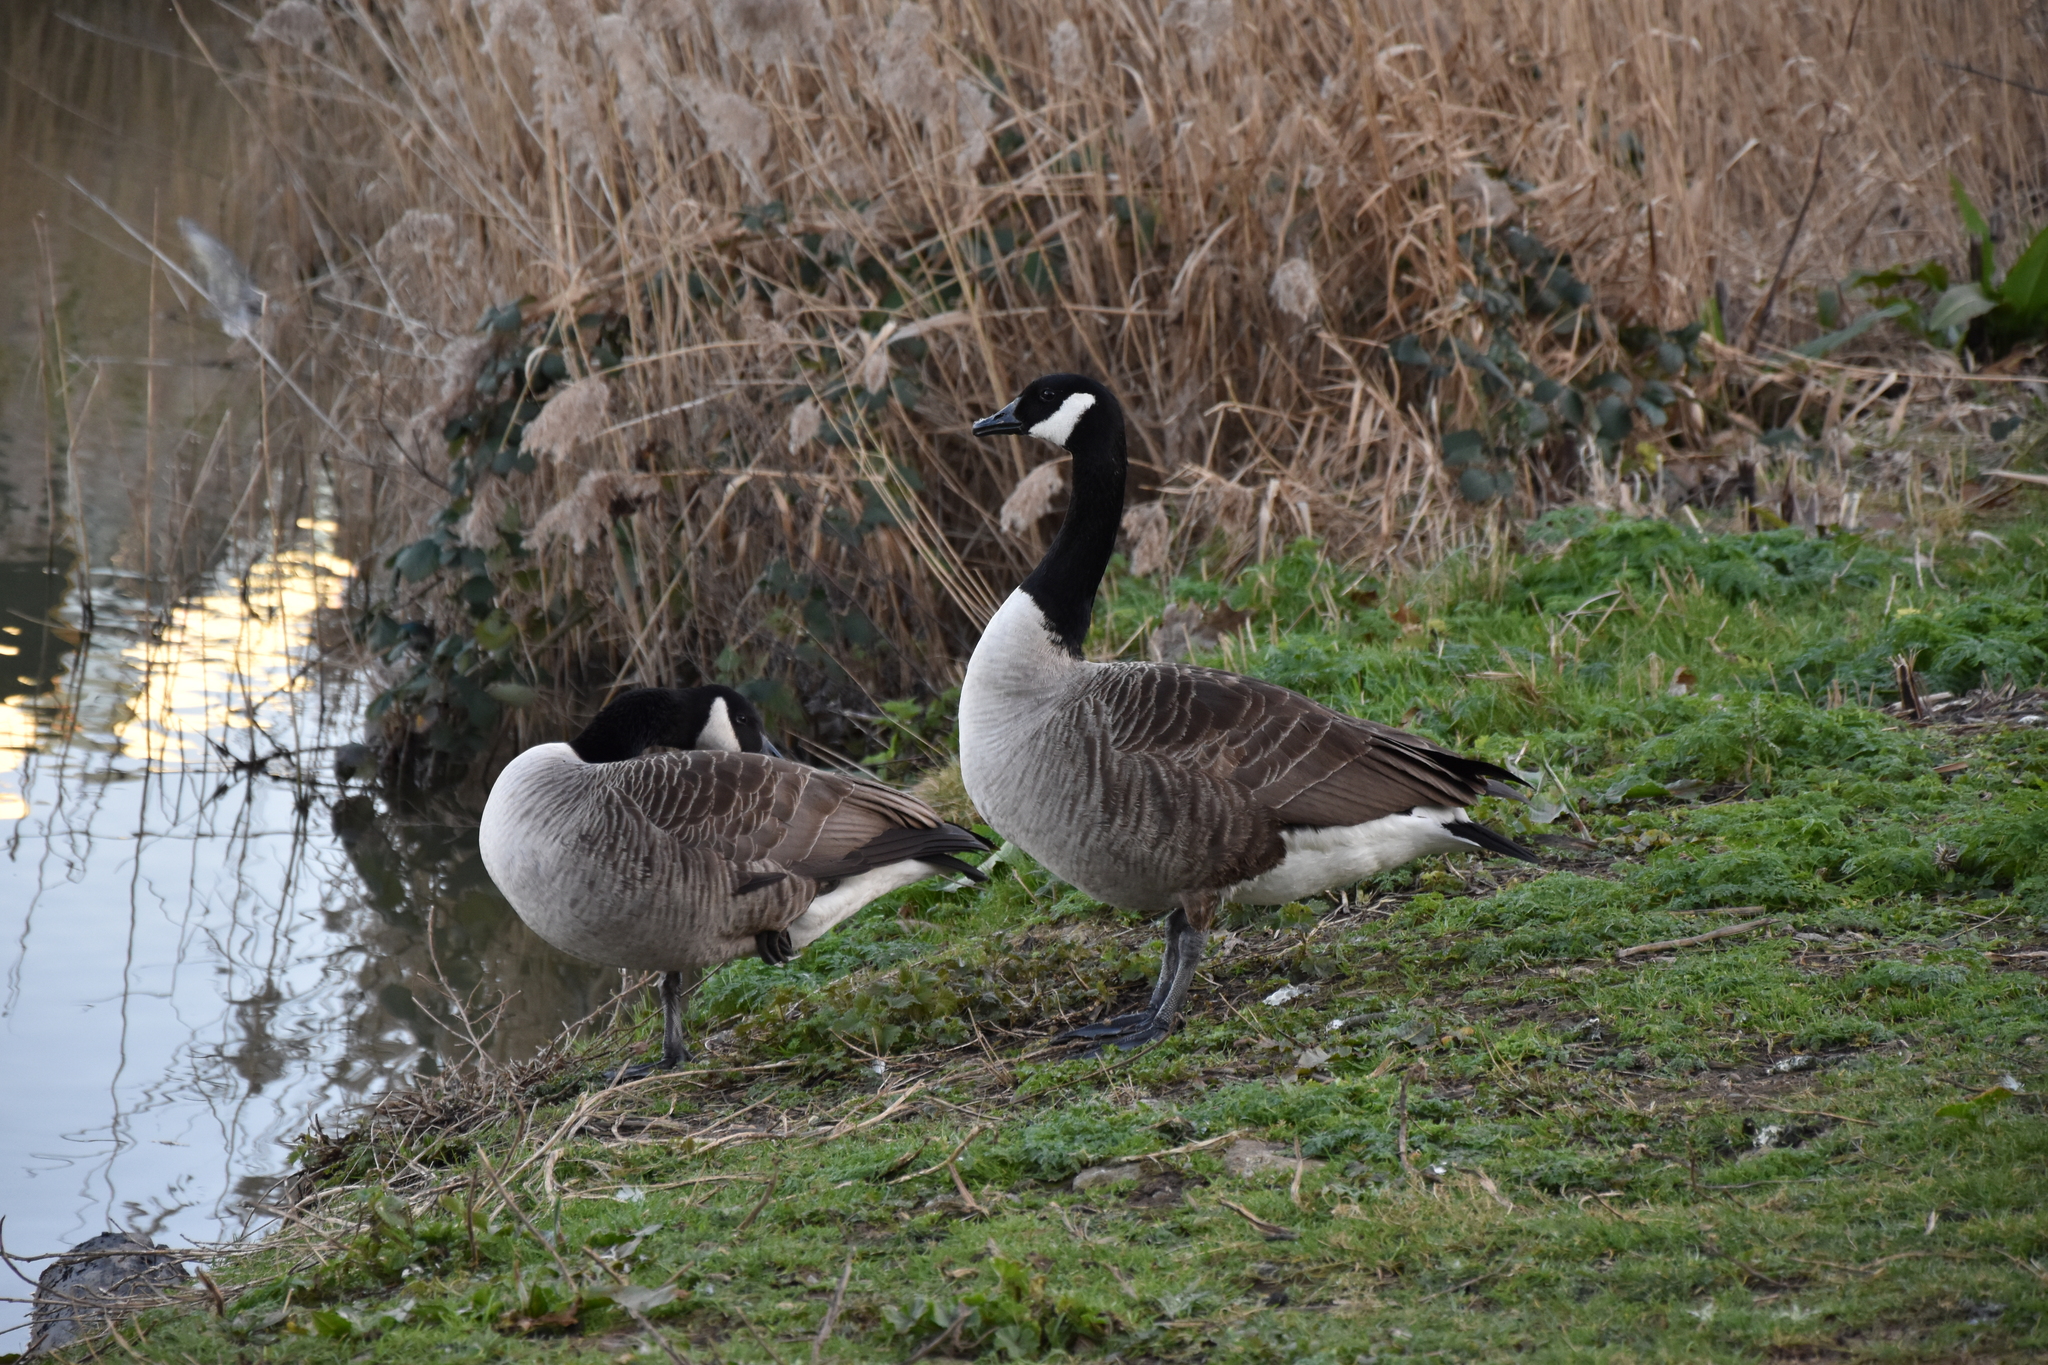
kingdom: Animalia
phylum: Chordata
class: Aves
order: Anseriformes
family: Anatidae
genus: Branta
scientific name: Branta canadensis
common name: Canada goose
